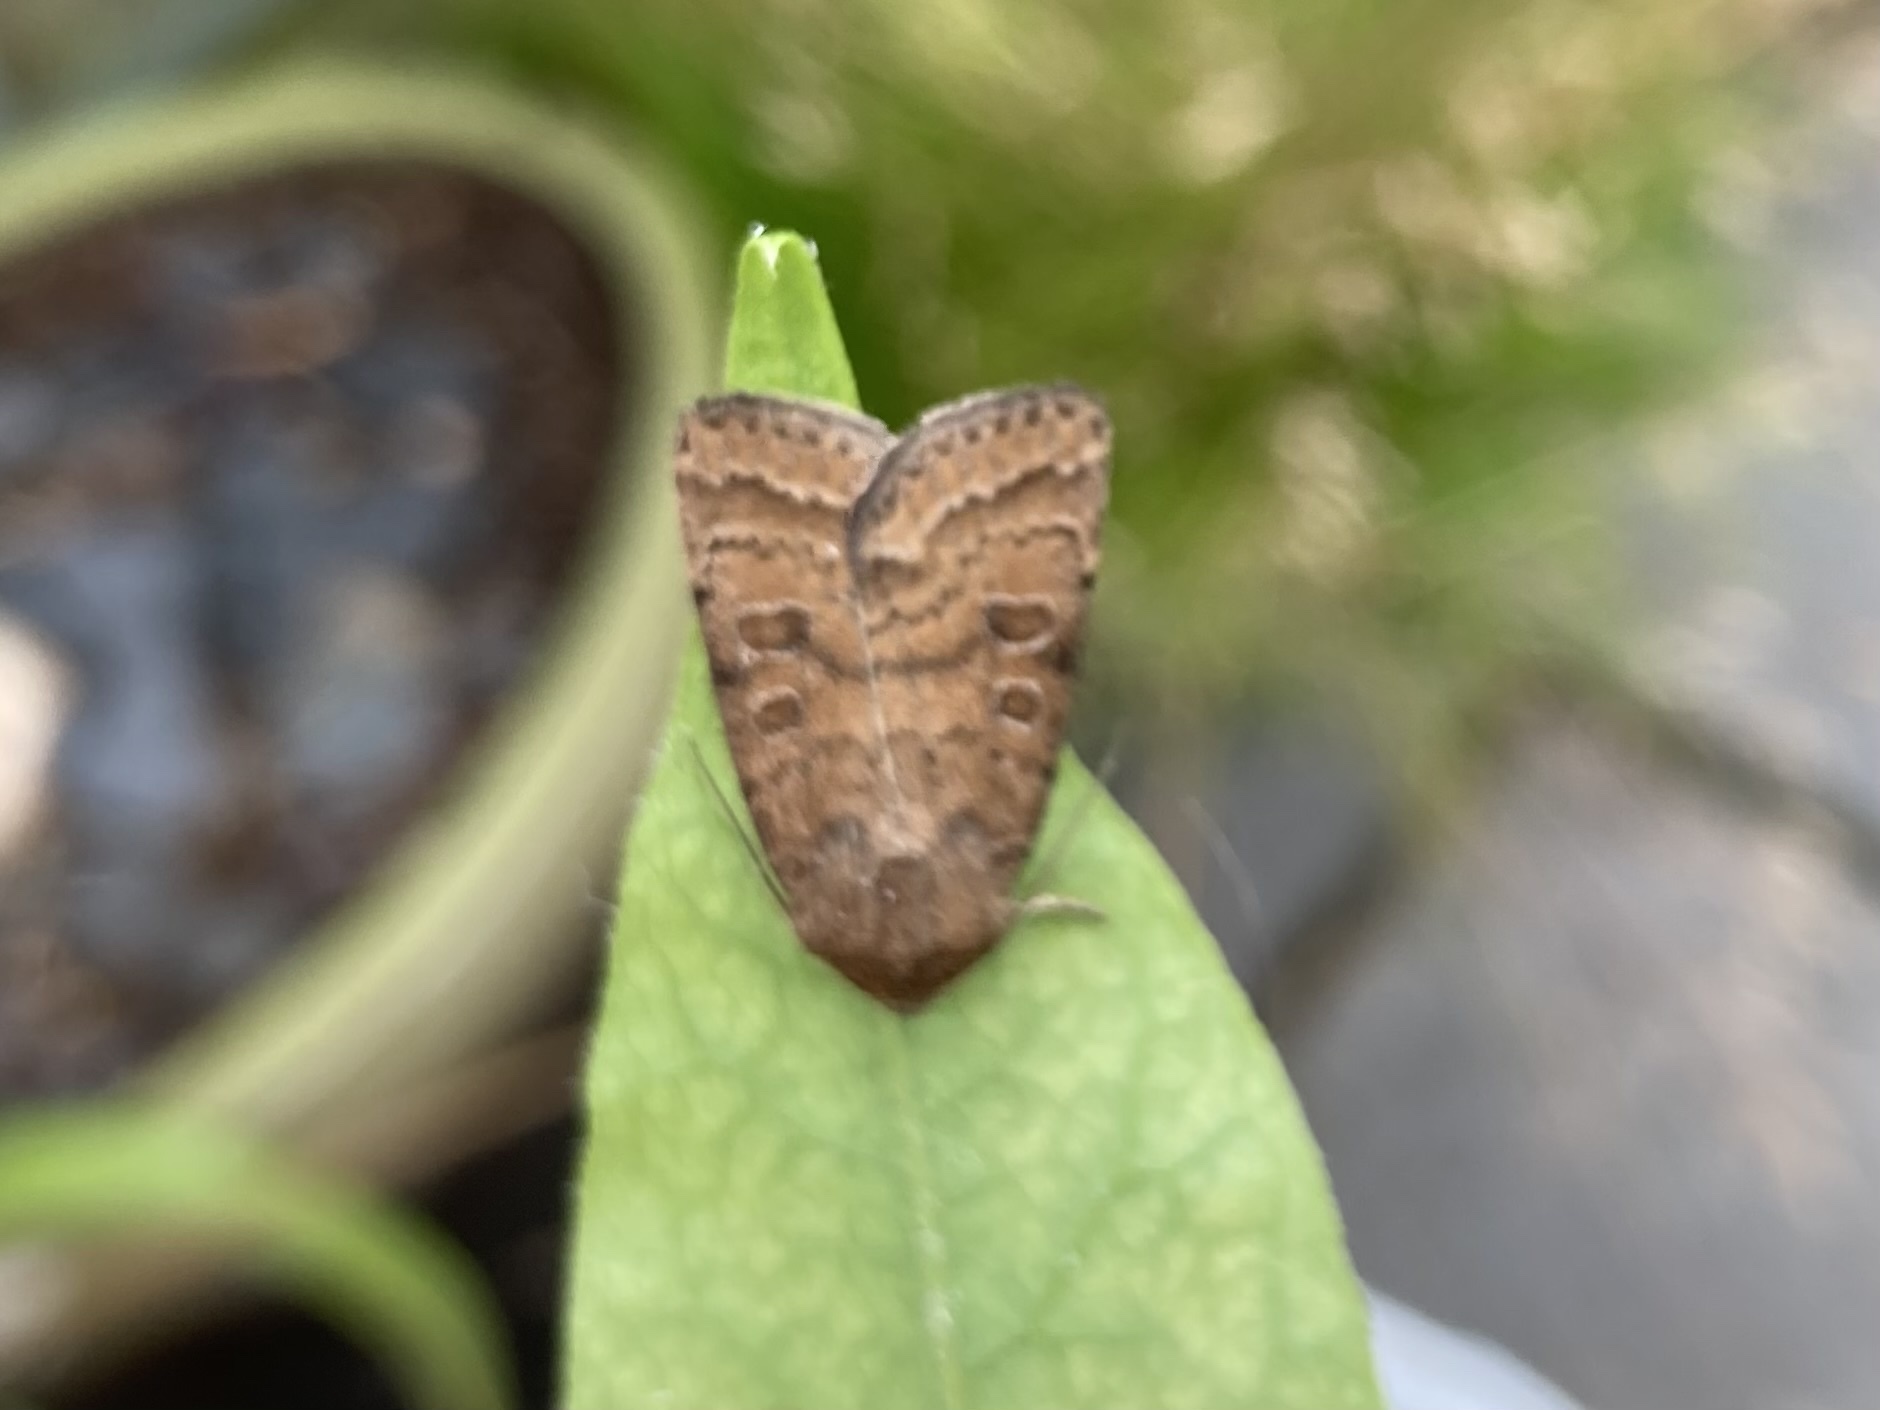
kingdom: Animalia
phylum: Arthropoda
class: Insecta
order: Lepidoptera
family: Noctuidae
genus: Hoplodrina
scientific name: Hoplodrina octogenaria
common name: Uncertain
